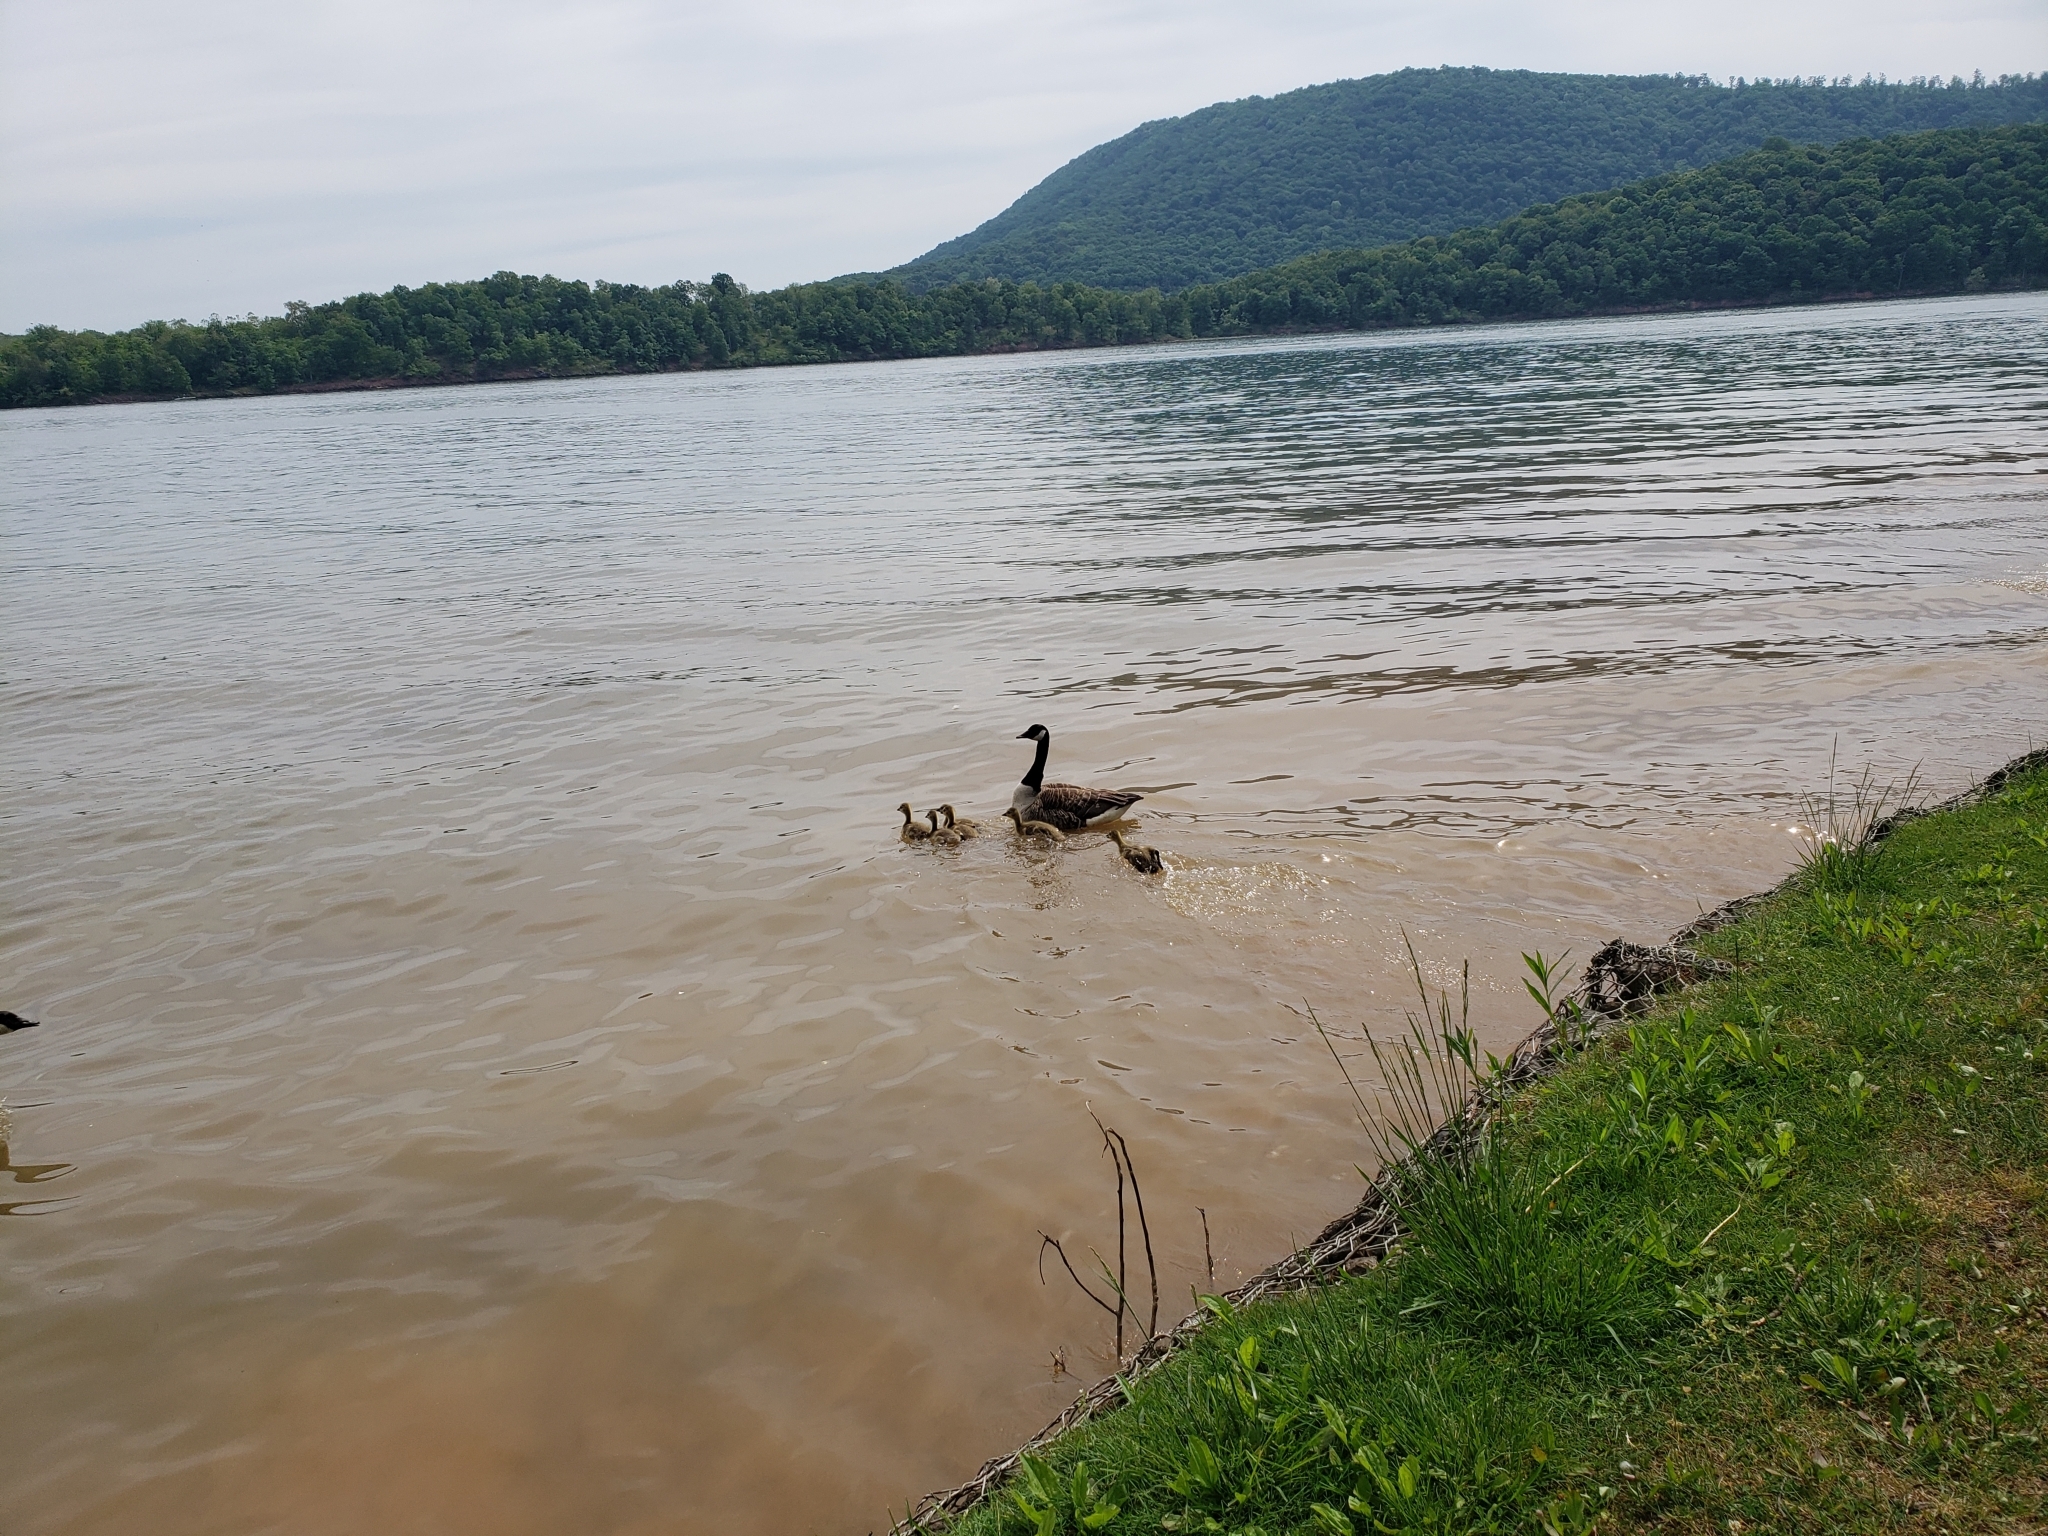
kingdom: Animalia
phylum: Chordata
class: Aves
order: Anseriformes
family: Anatidae
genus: Branta
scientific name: Branta canadensis
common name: Canada goose
